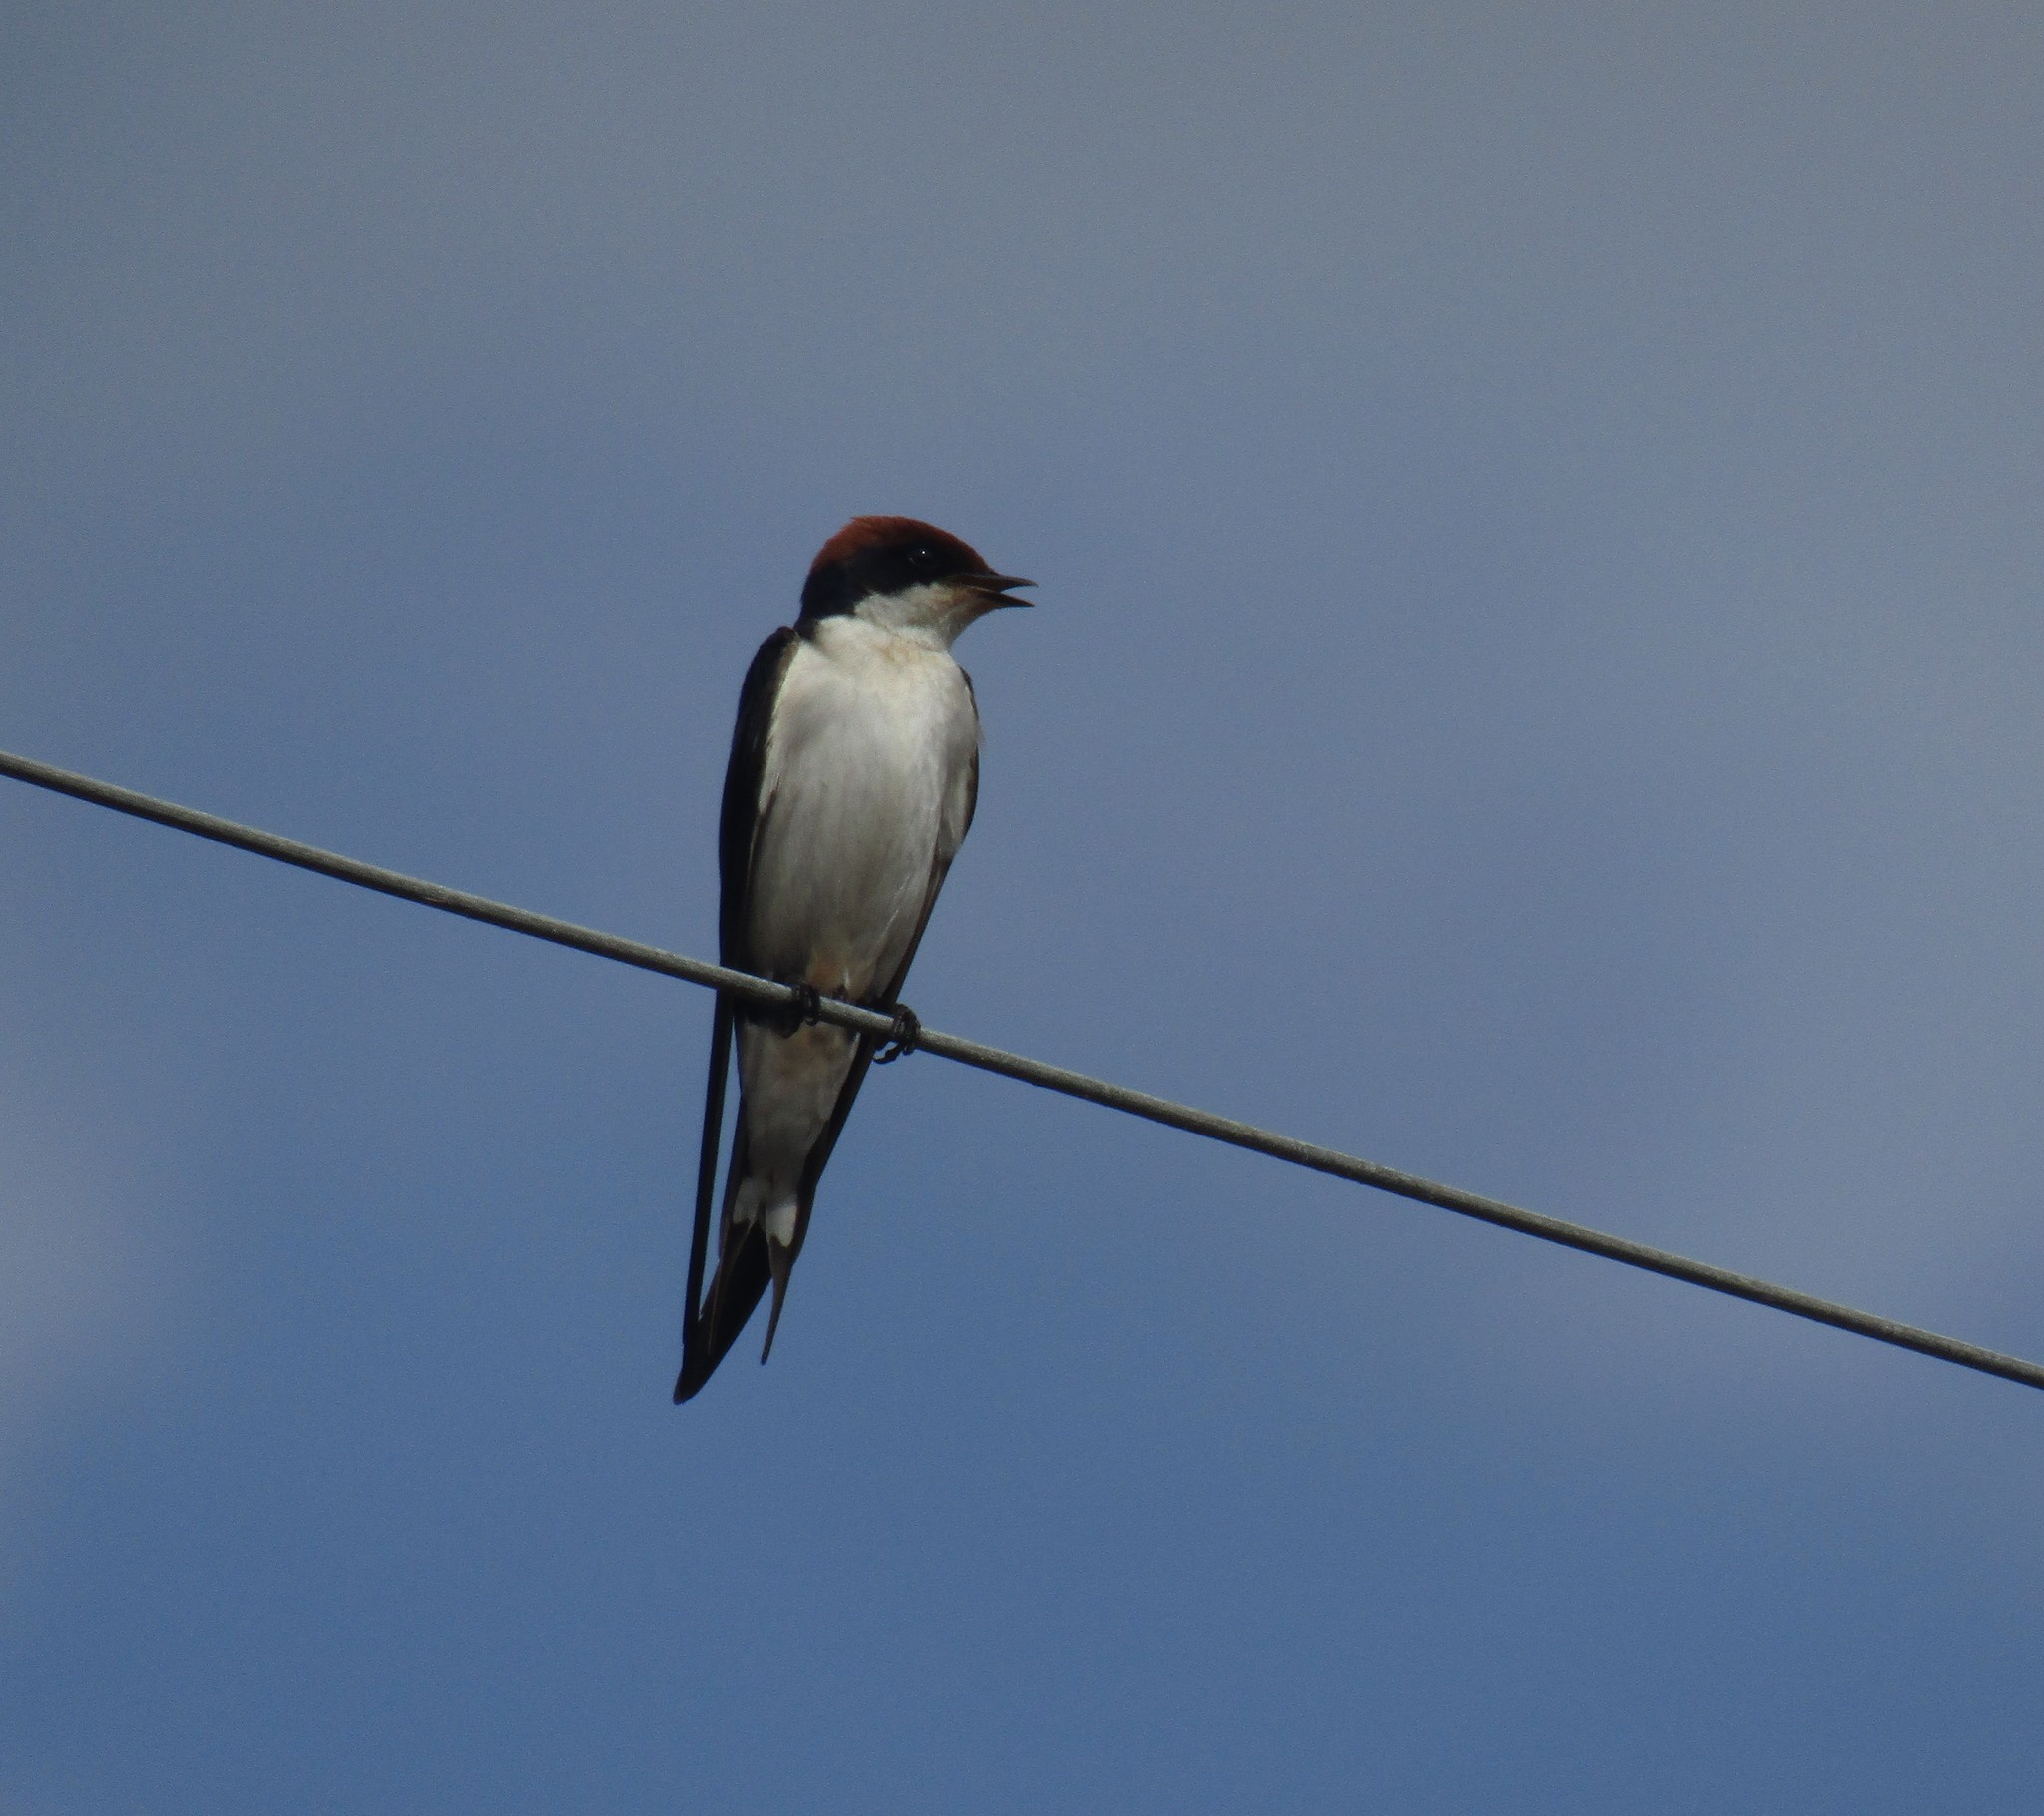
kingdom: Animalia
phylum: Chordata
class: Aves
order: Passeriformes
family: Hirundinidae
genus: Hirundo
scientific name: Hirundo smithii
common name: Wire-tailed swallow
